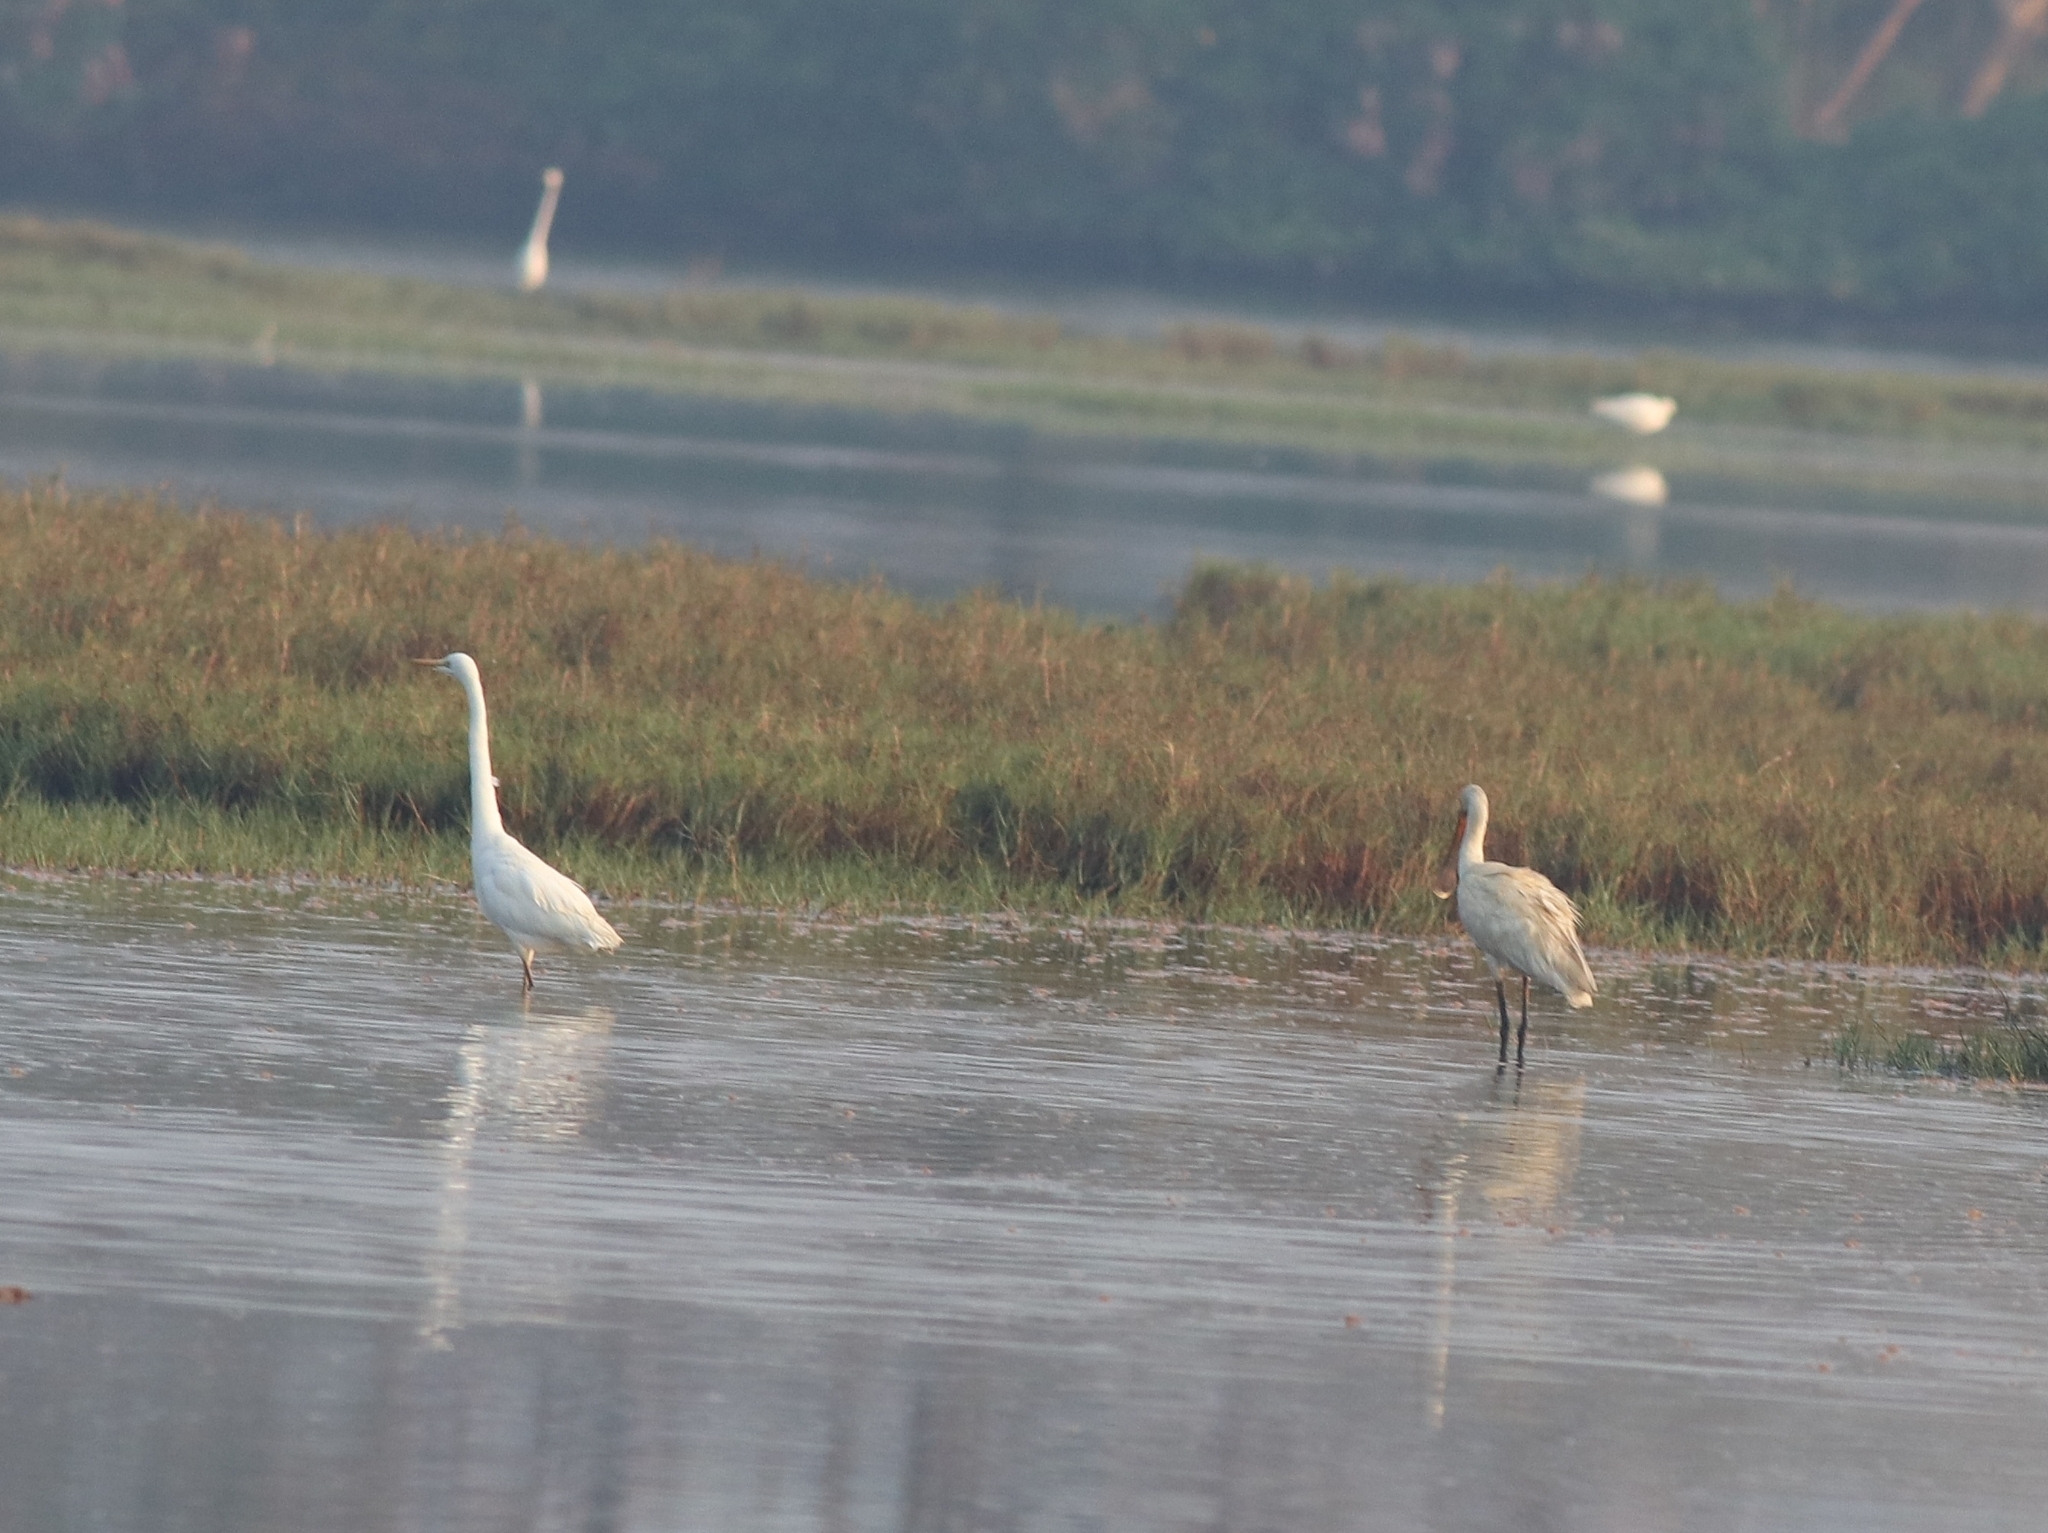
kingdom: Animalia
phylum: Chordata
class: Aves
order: Pelecaniformes
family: Ardeidae
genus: Egretta
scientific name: Egretta intermedia
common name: Intermediate egret
